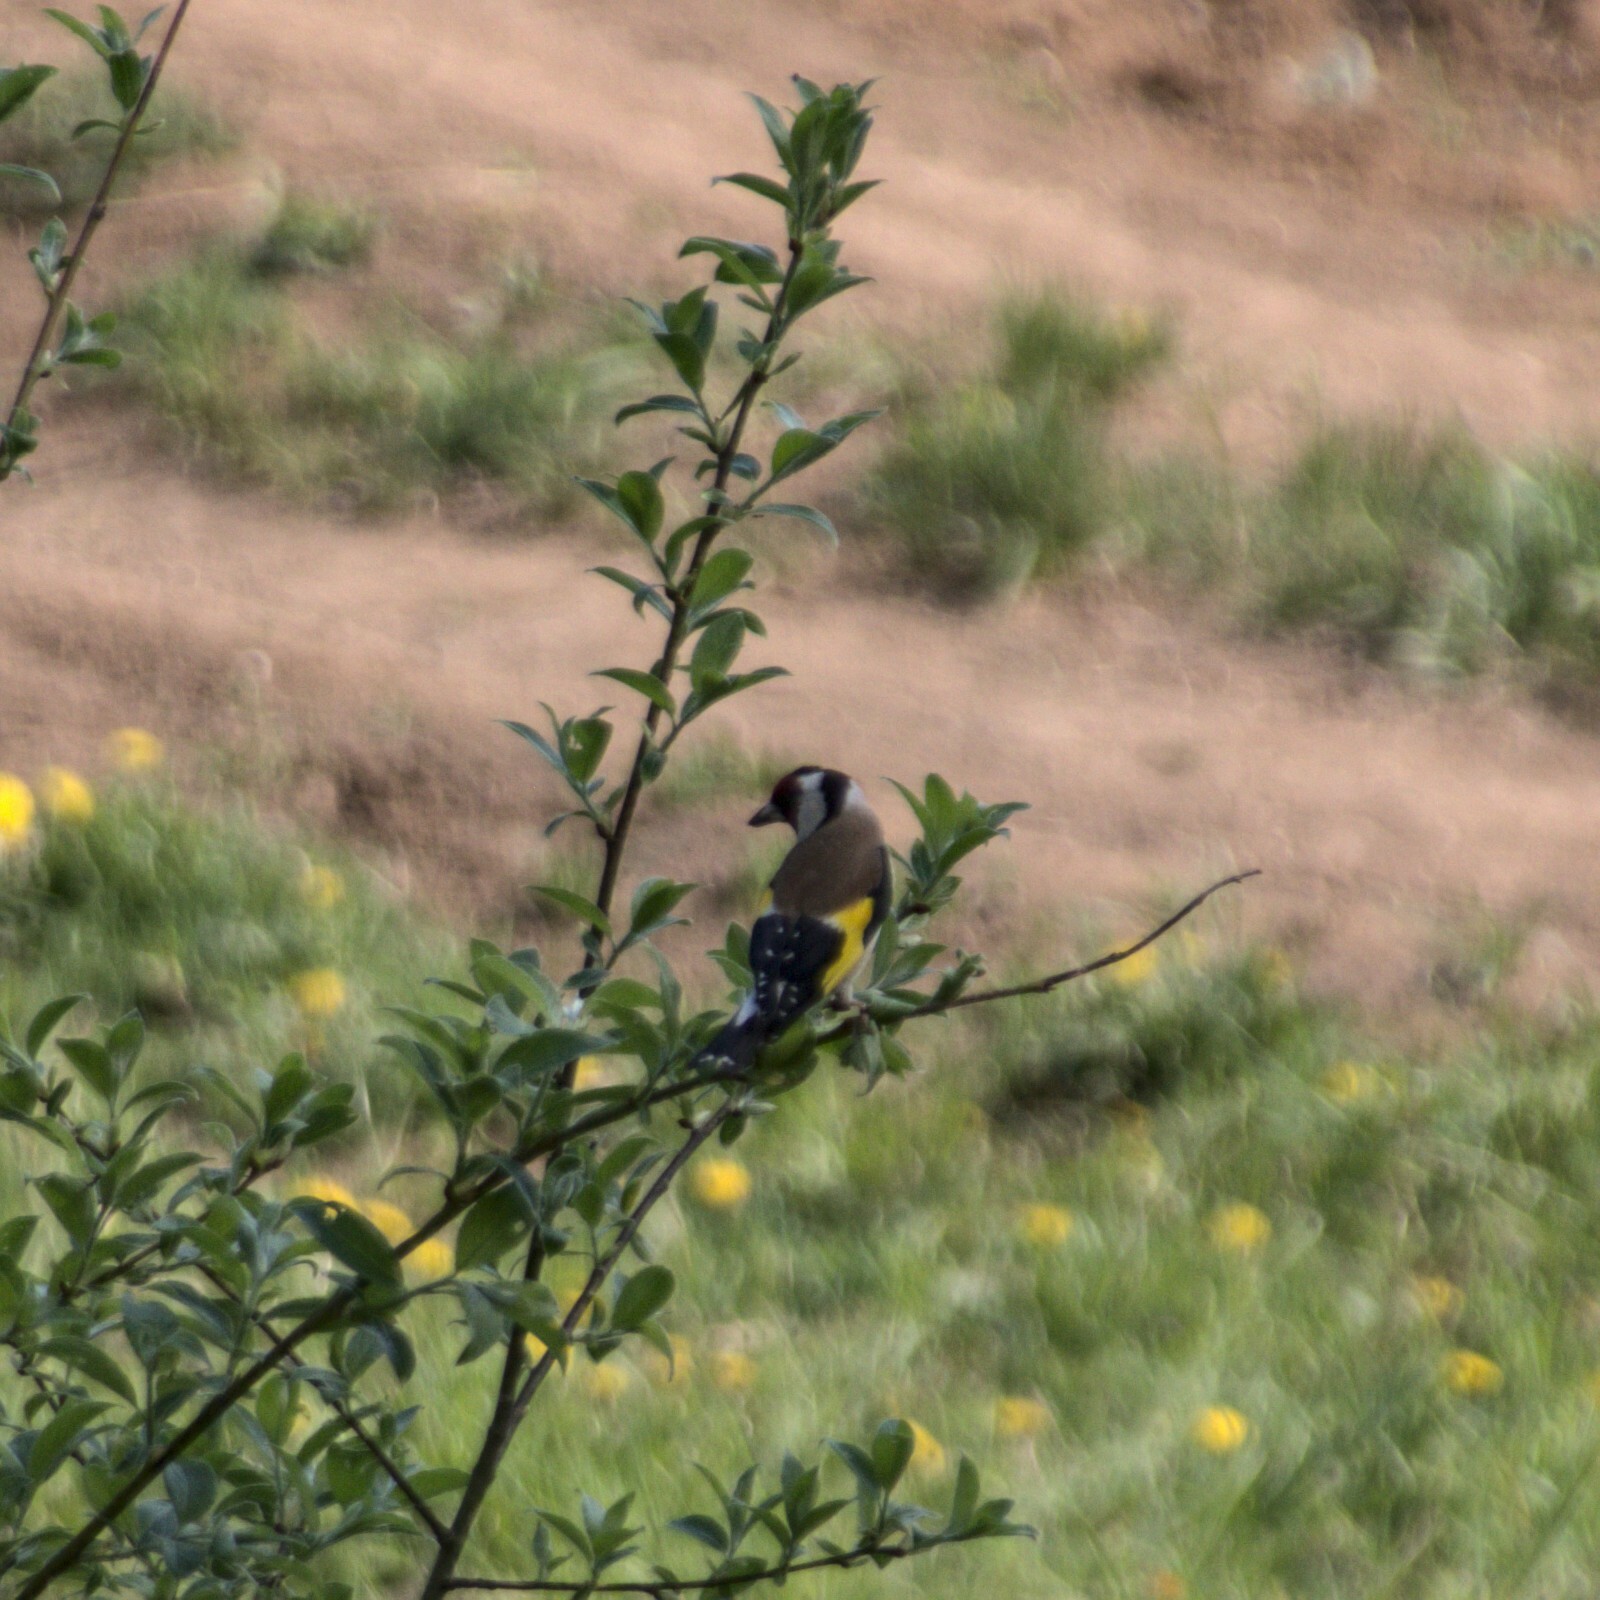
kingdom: Animalia
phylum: Chordata
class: Aves
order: Passeriformes
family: Fringillidae
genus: Carduelis
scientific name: Carduelis carduelis
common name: European goldfinch
